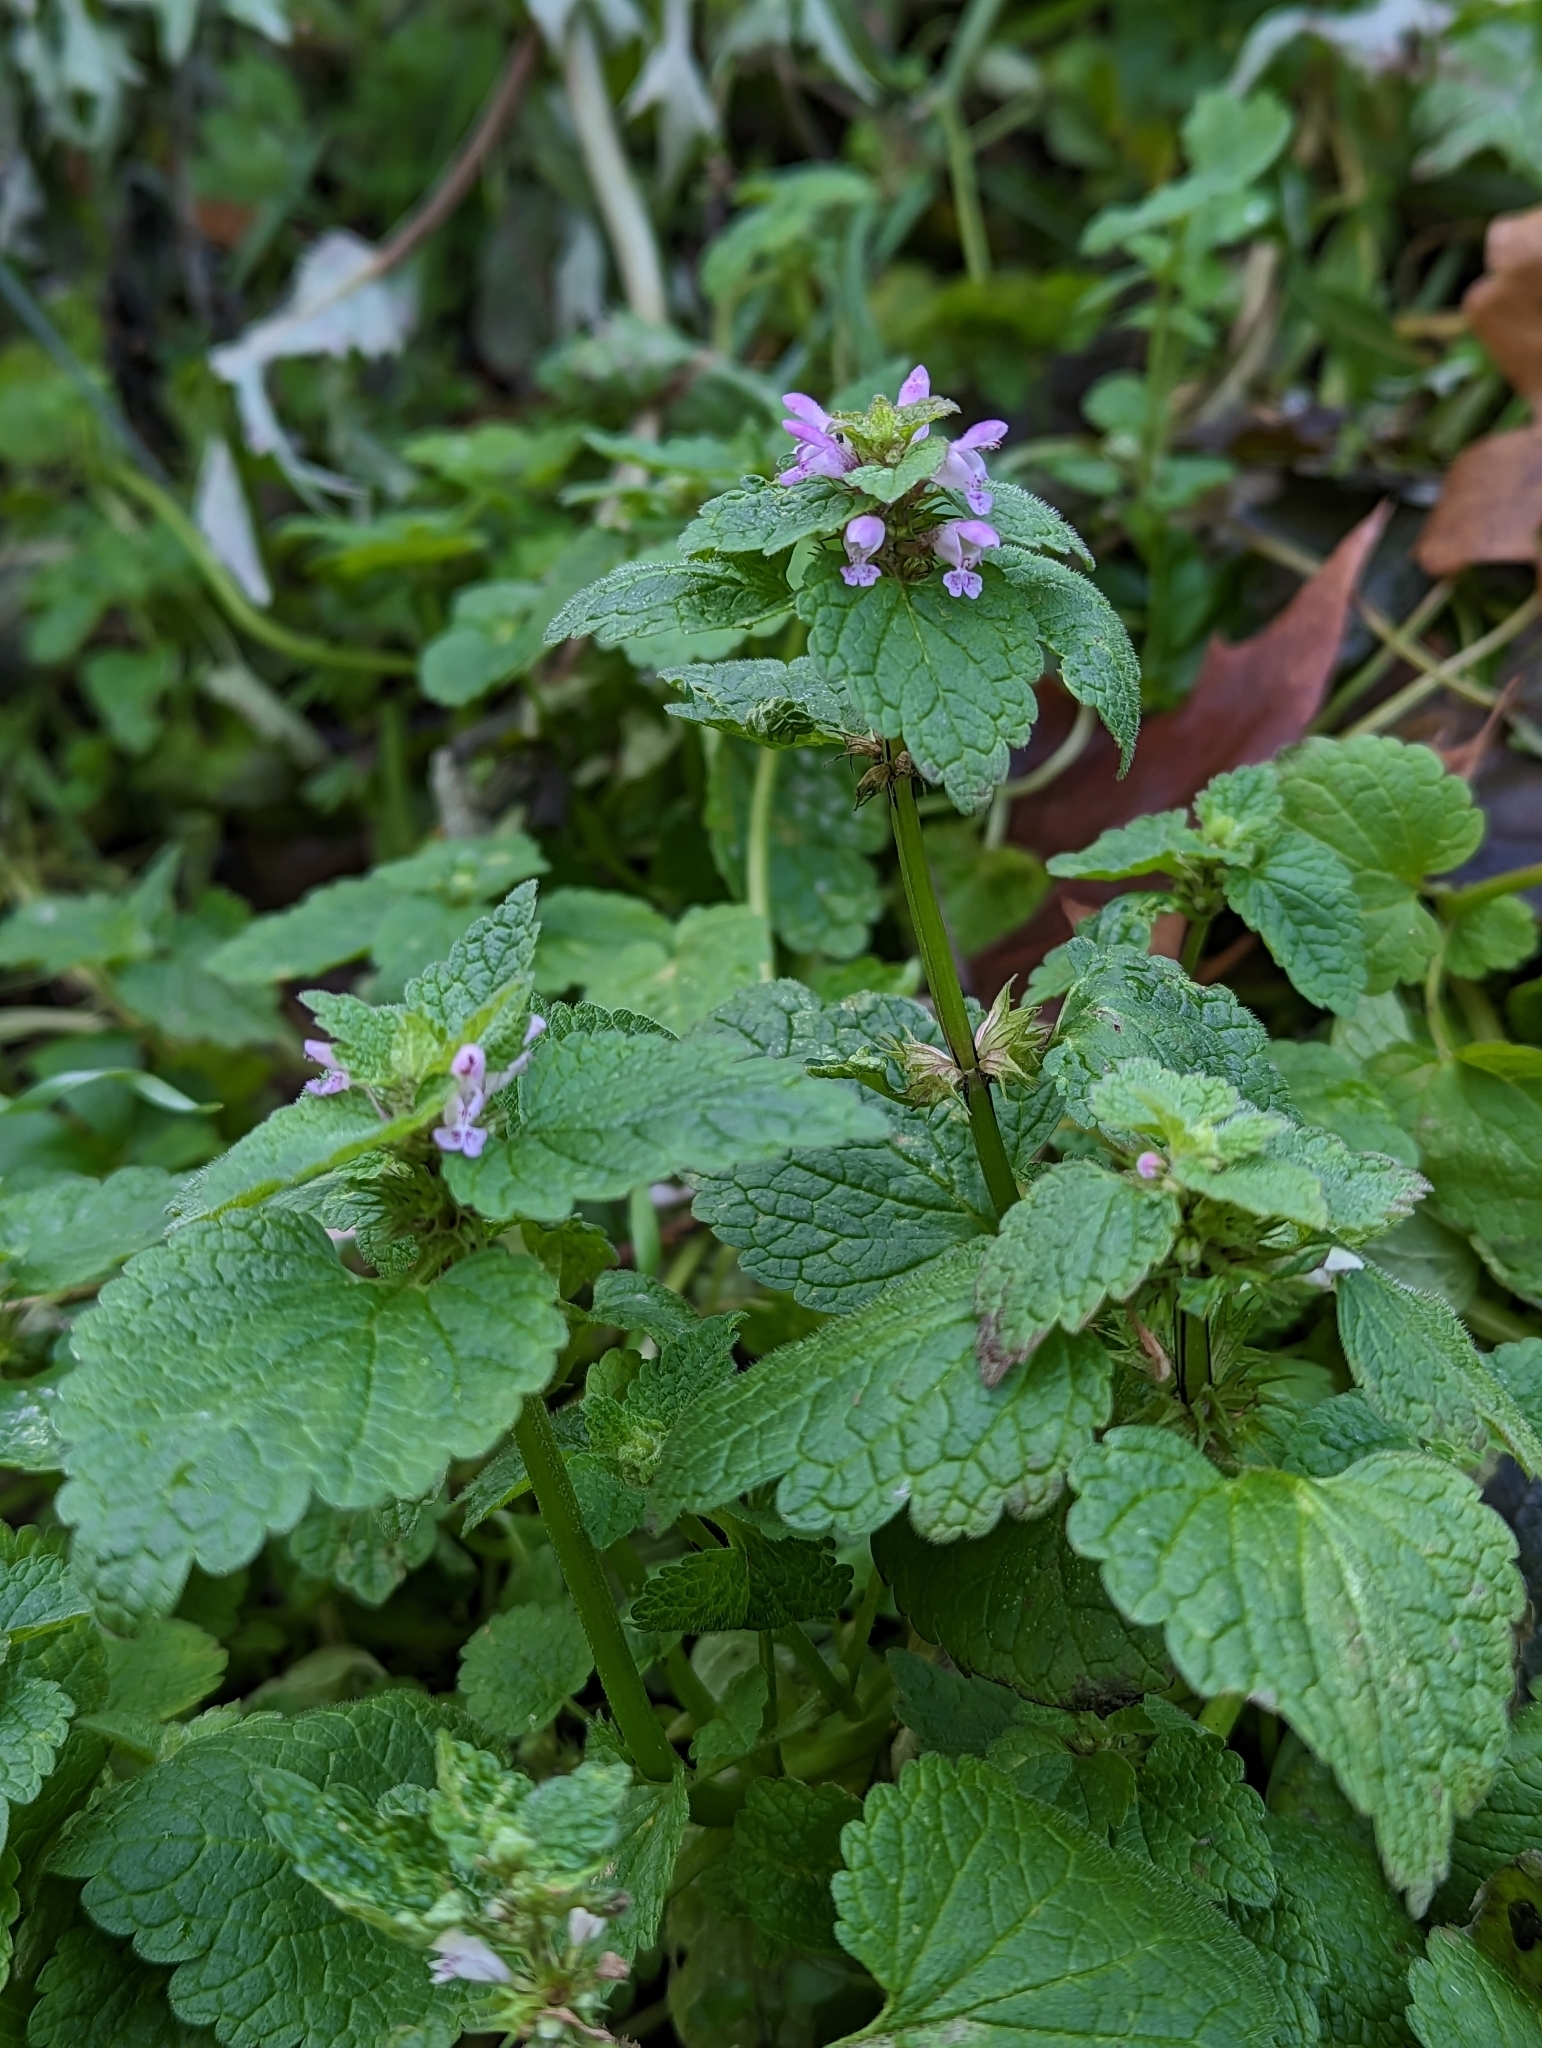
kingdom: Plantae
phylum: Tracheophyta
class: Magnoliopsida
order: Lamiales
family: Lamiaceae
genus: Lamium
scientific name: Lamium purpureum
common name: Red dead-nettle
